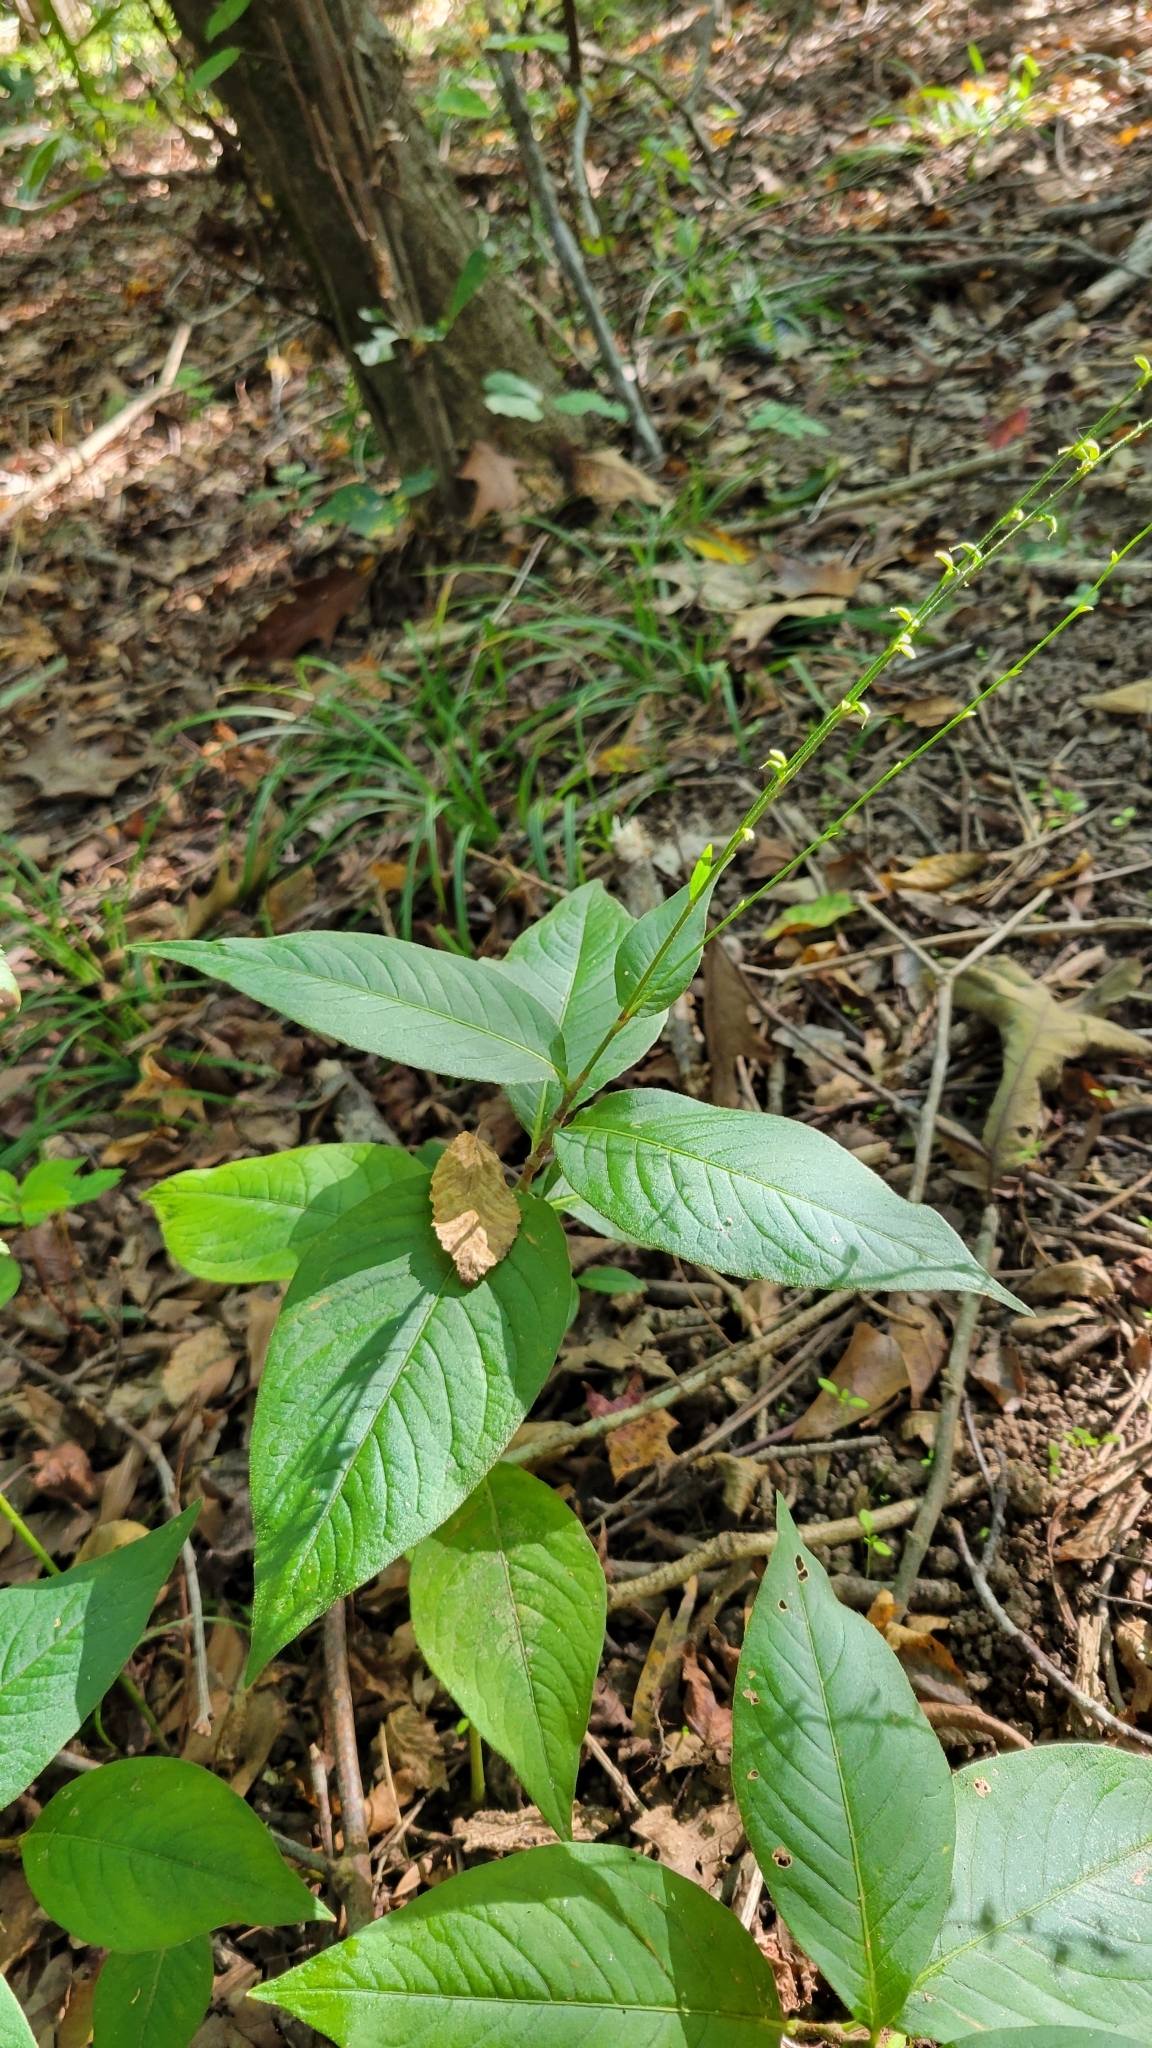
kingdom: Plantae
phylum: Tracheophyta
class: Magnoliopsida
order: Caryophyllales
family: Polygonaceae
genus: Persicaria
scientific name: Persicaria virginiana
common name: Jumpseed
